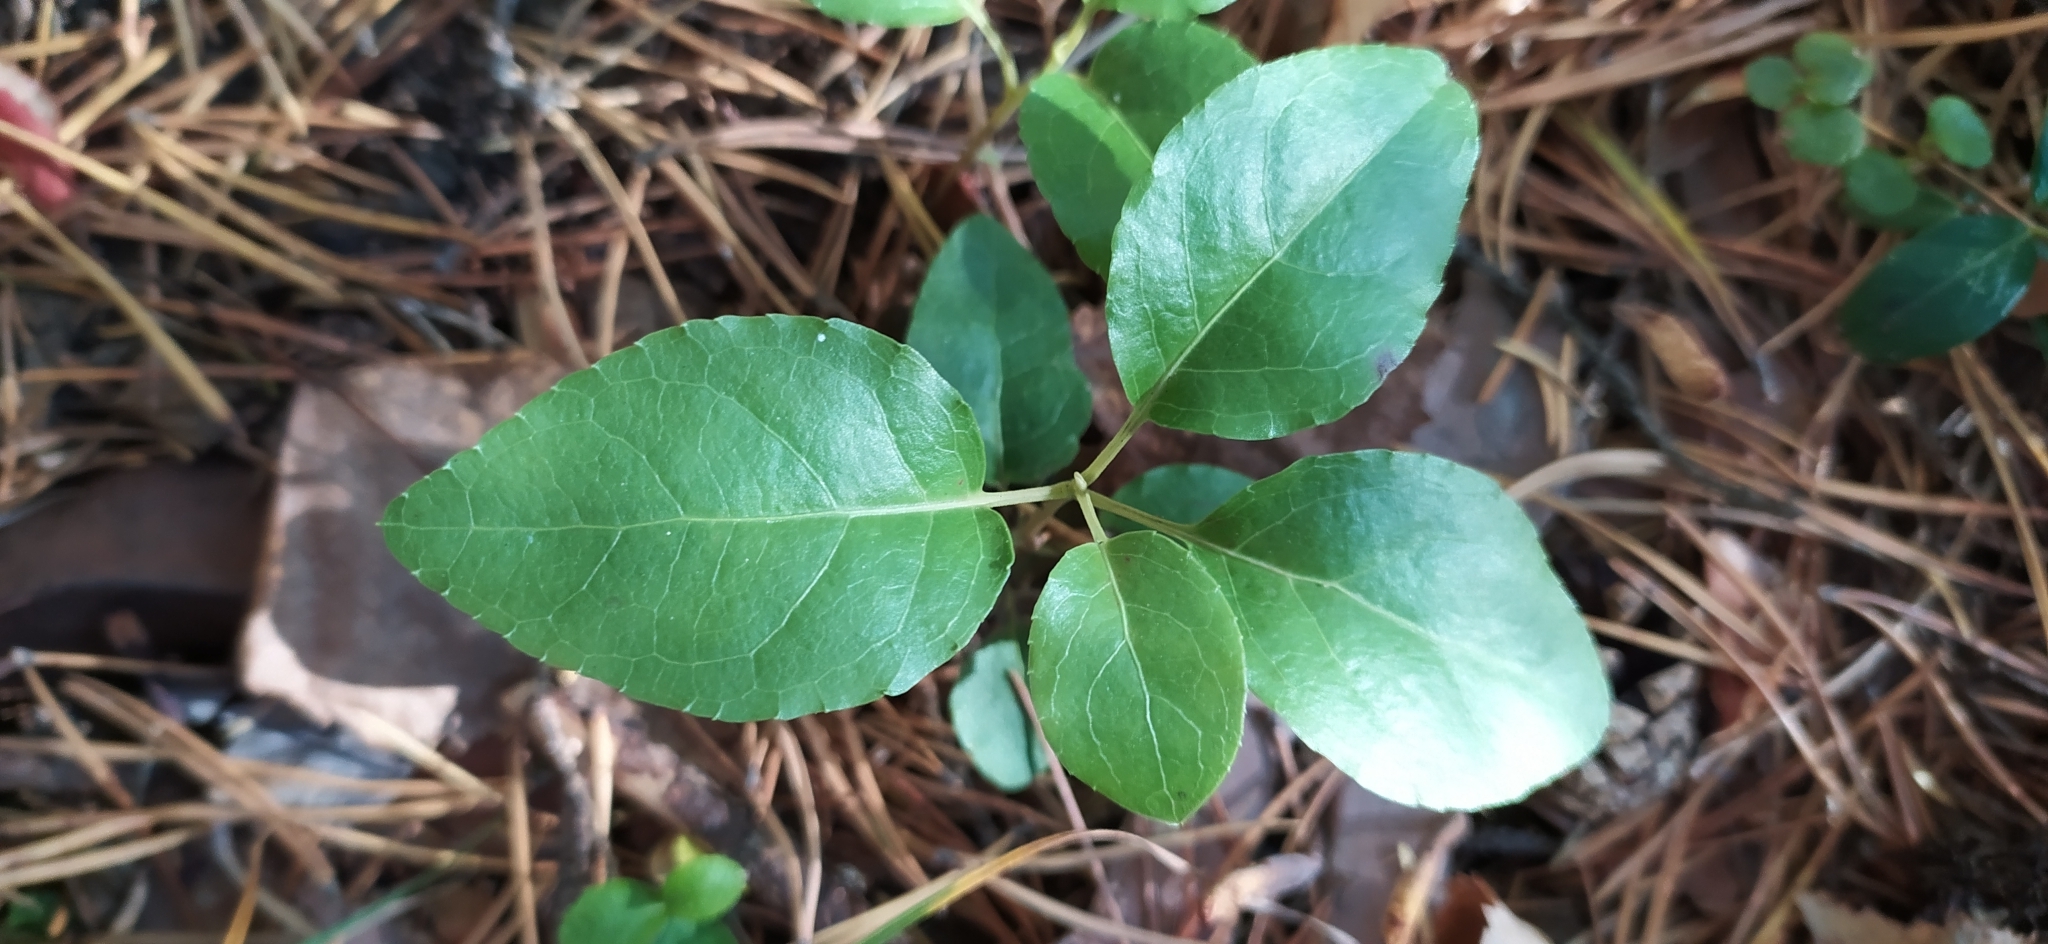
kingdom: Plantae
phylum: Tracheophyta
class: Magnoliopsida
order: Ericales
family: Ericaceae
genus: Orthilia
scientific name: Orthilia secunda
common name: One-sided orthilia
